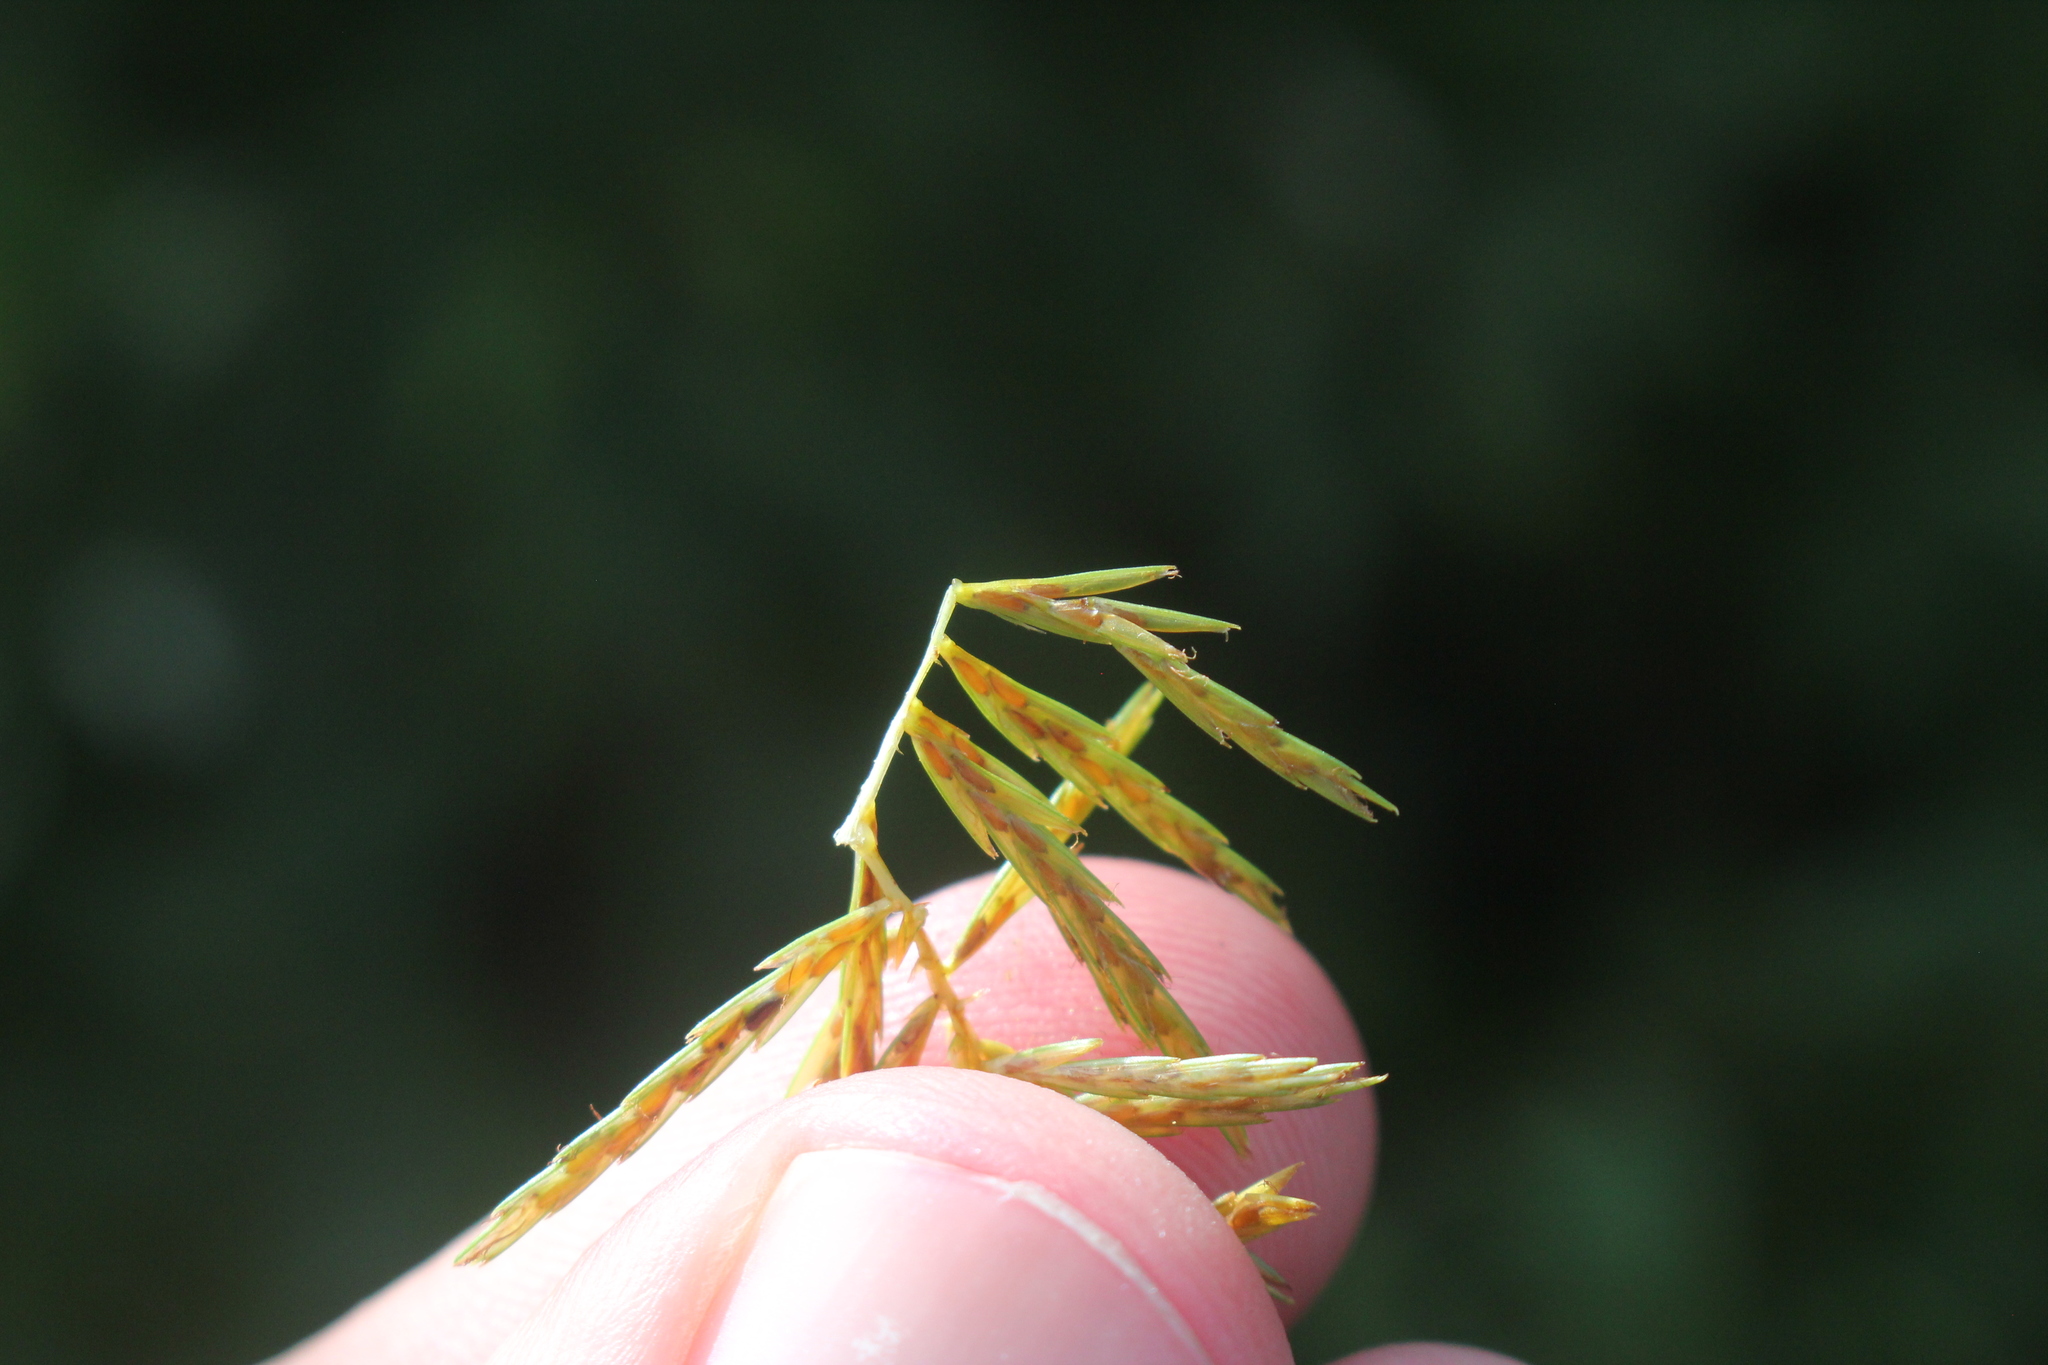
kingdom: Plantae
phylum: Tracheophyta
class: Liliopsida
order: Poales
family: Cyperaceae
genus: Cyperus
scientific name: Cyperus strigosus
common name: False nutsedge
